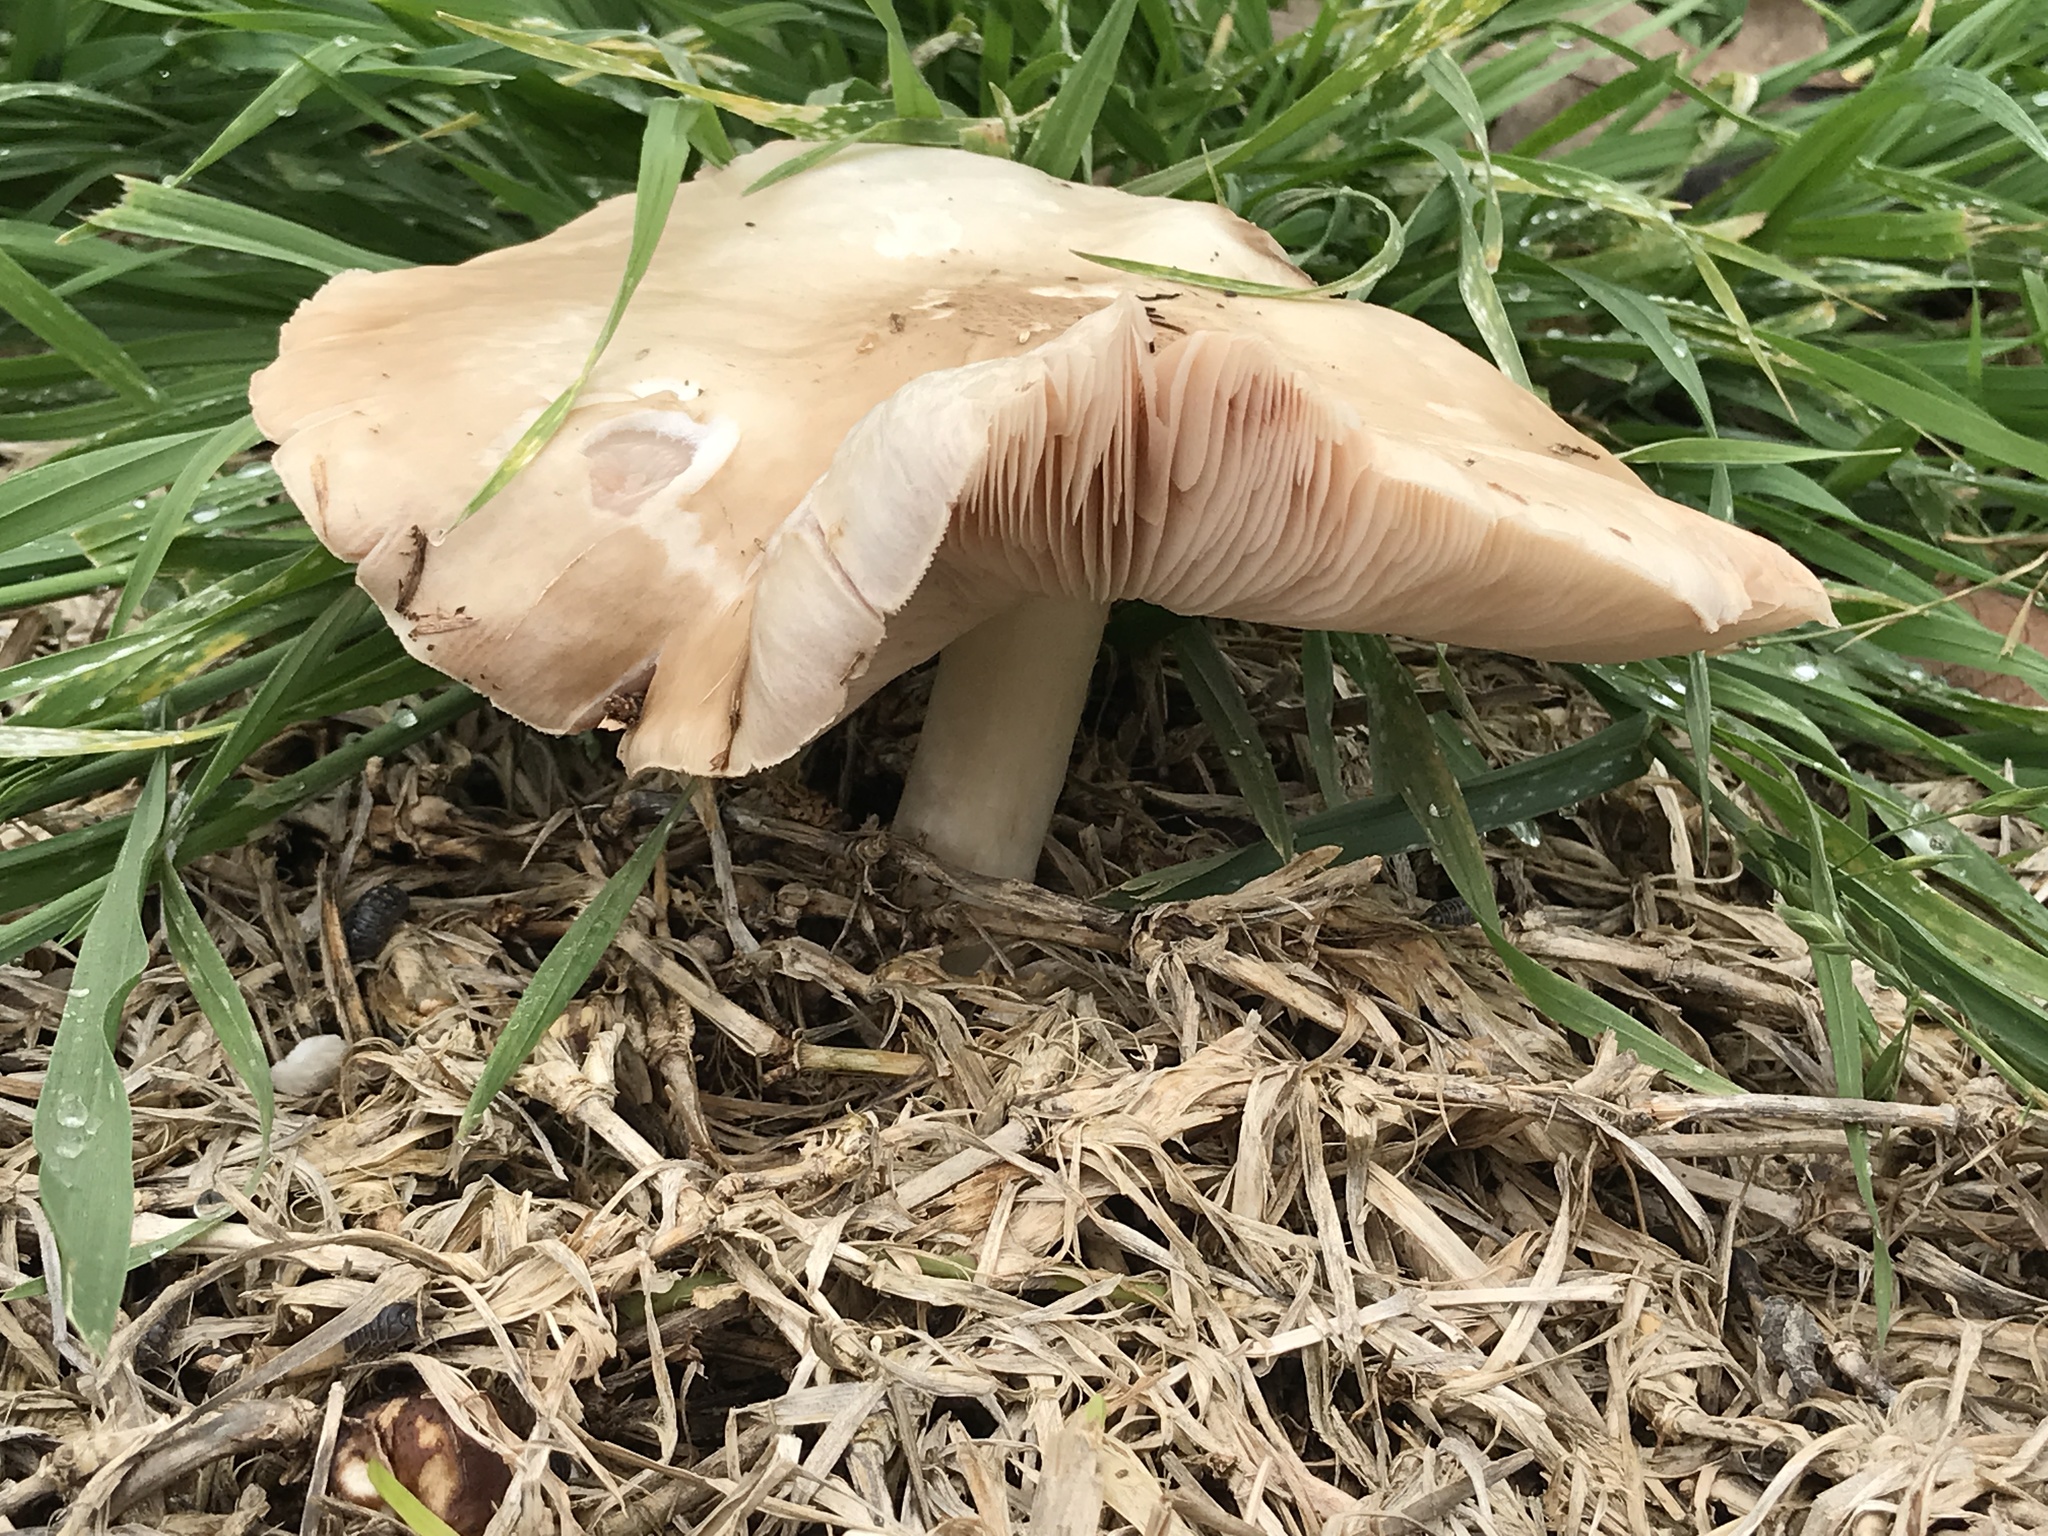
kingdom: Fungi
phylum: Basidiomycota
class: Agaricomycetes
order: Agaricales
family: Pluteaceae
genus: Pluteus
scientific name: Pluteus petasatus
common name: Scaly shield
